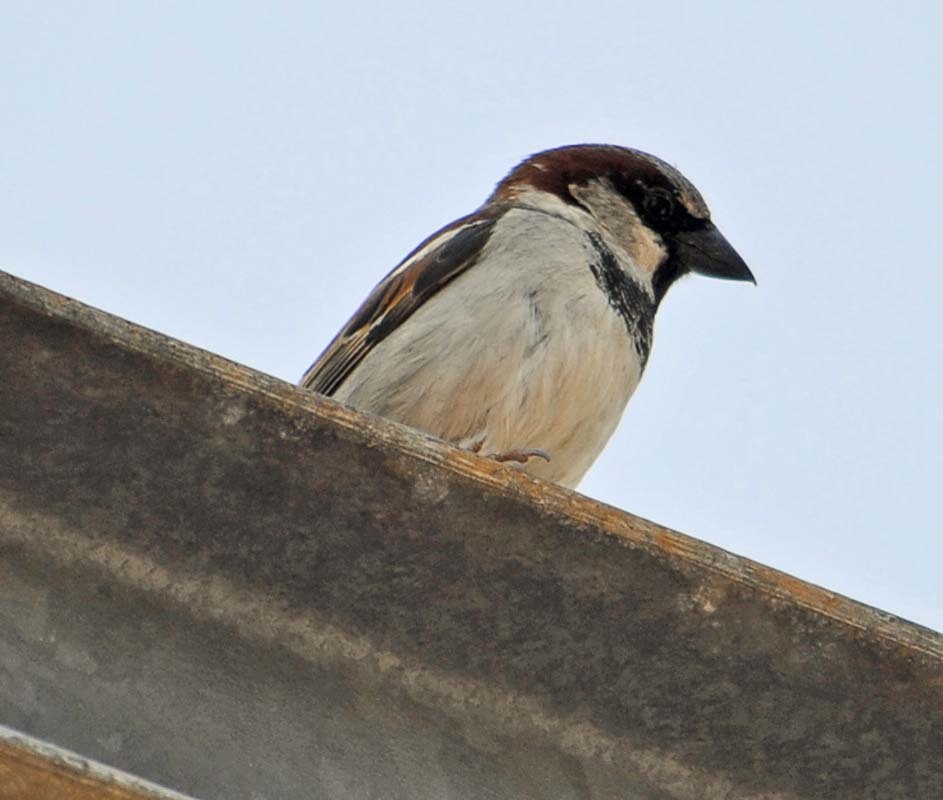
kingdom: Animalia
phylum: Chordata
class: Aves
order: Passeriformes
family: Passeridae
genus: Passer
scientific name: Passer domesticus
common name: House sparrow
